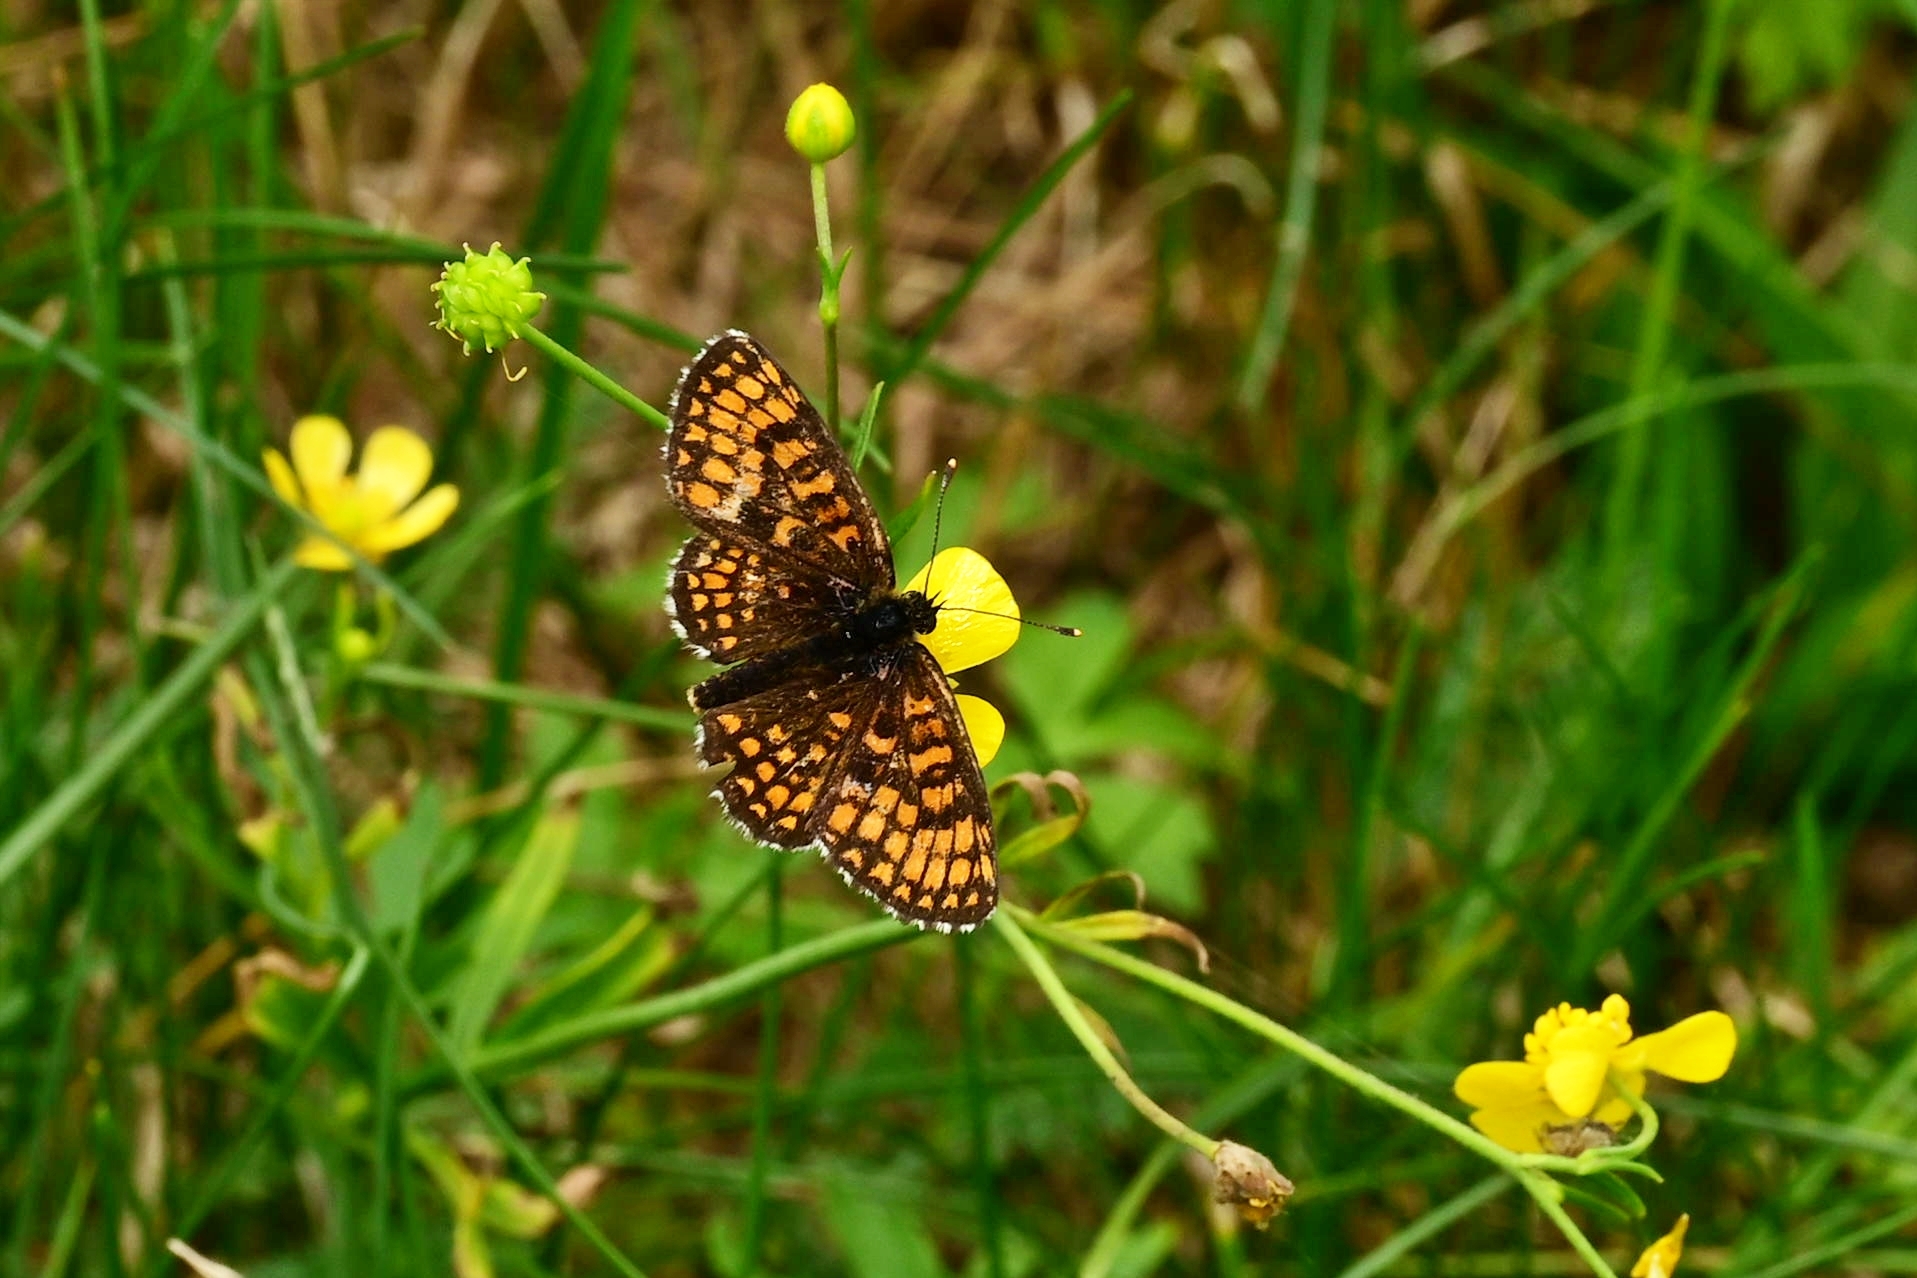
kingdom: Animalia
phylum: Arthropoda
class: Insecta
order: Lepidoptera
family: Nymphalidae
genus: Melitaea
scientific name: Melitaea athalia
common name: Heath fritillary
